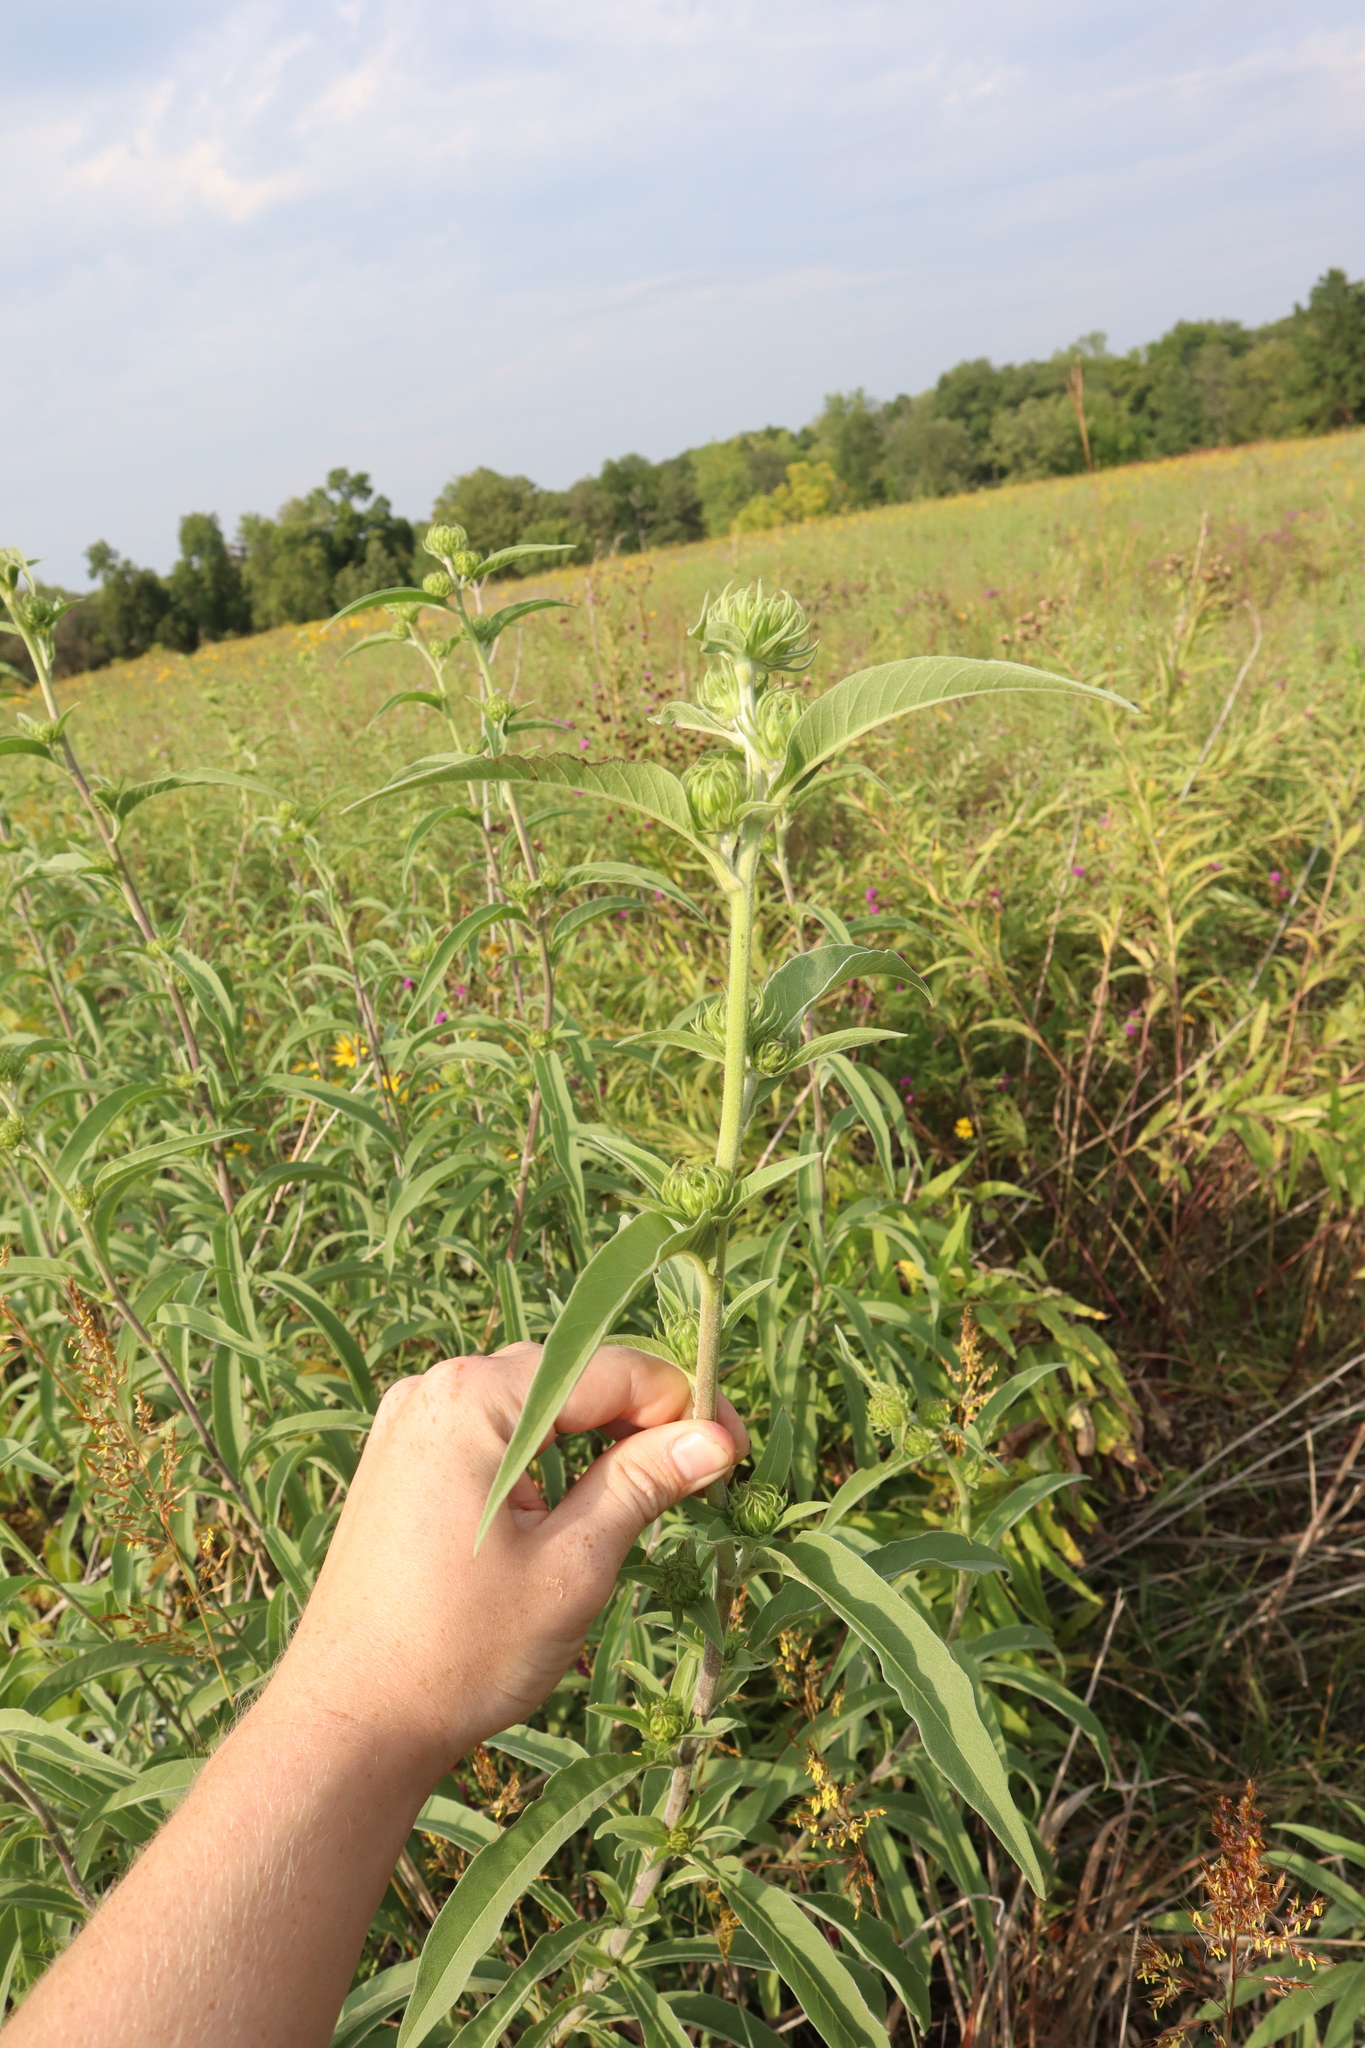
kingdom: Plantae
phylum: Tracheophyta
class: Magnoliopsida
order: Asterales
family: Asteraceae
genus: Helianthus
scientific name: Helianthus maximiliani
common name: Maximilian's sunflower
